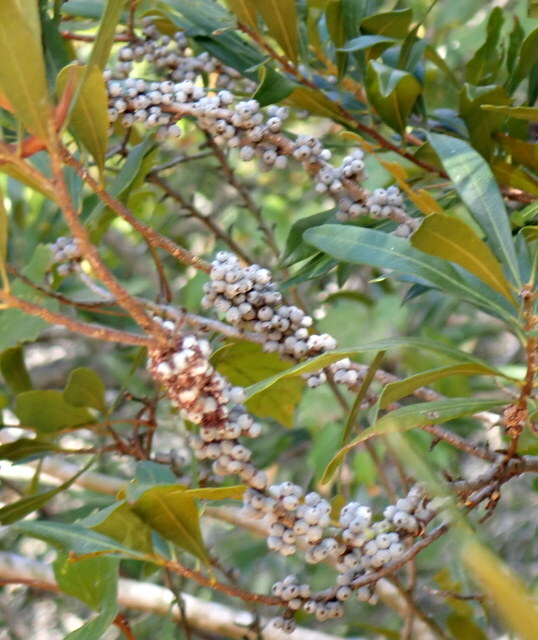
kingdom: Plantae
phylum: Tracheophyta
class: Magnoliopsida
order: Fagales
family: Myricaceae
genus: Morella
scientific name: Morella cerifera
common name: Wax myrtle
